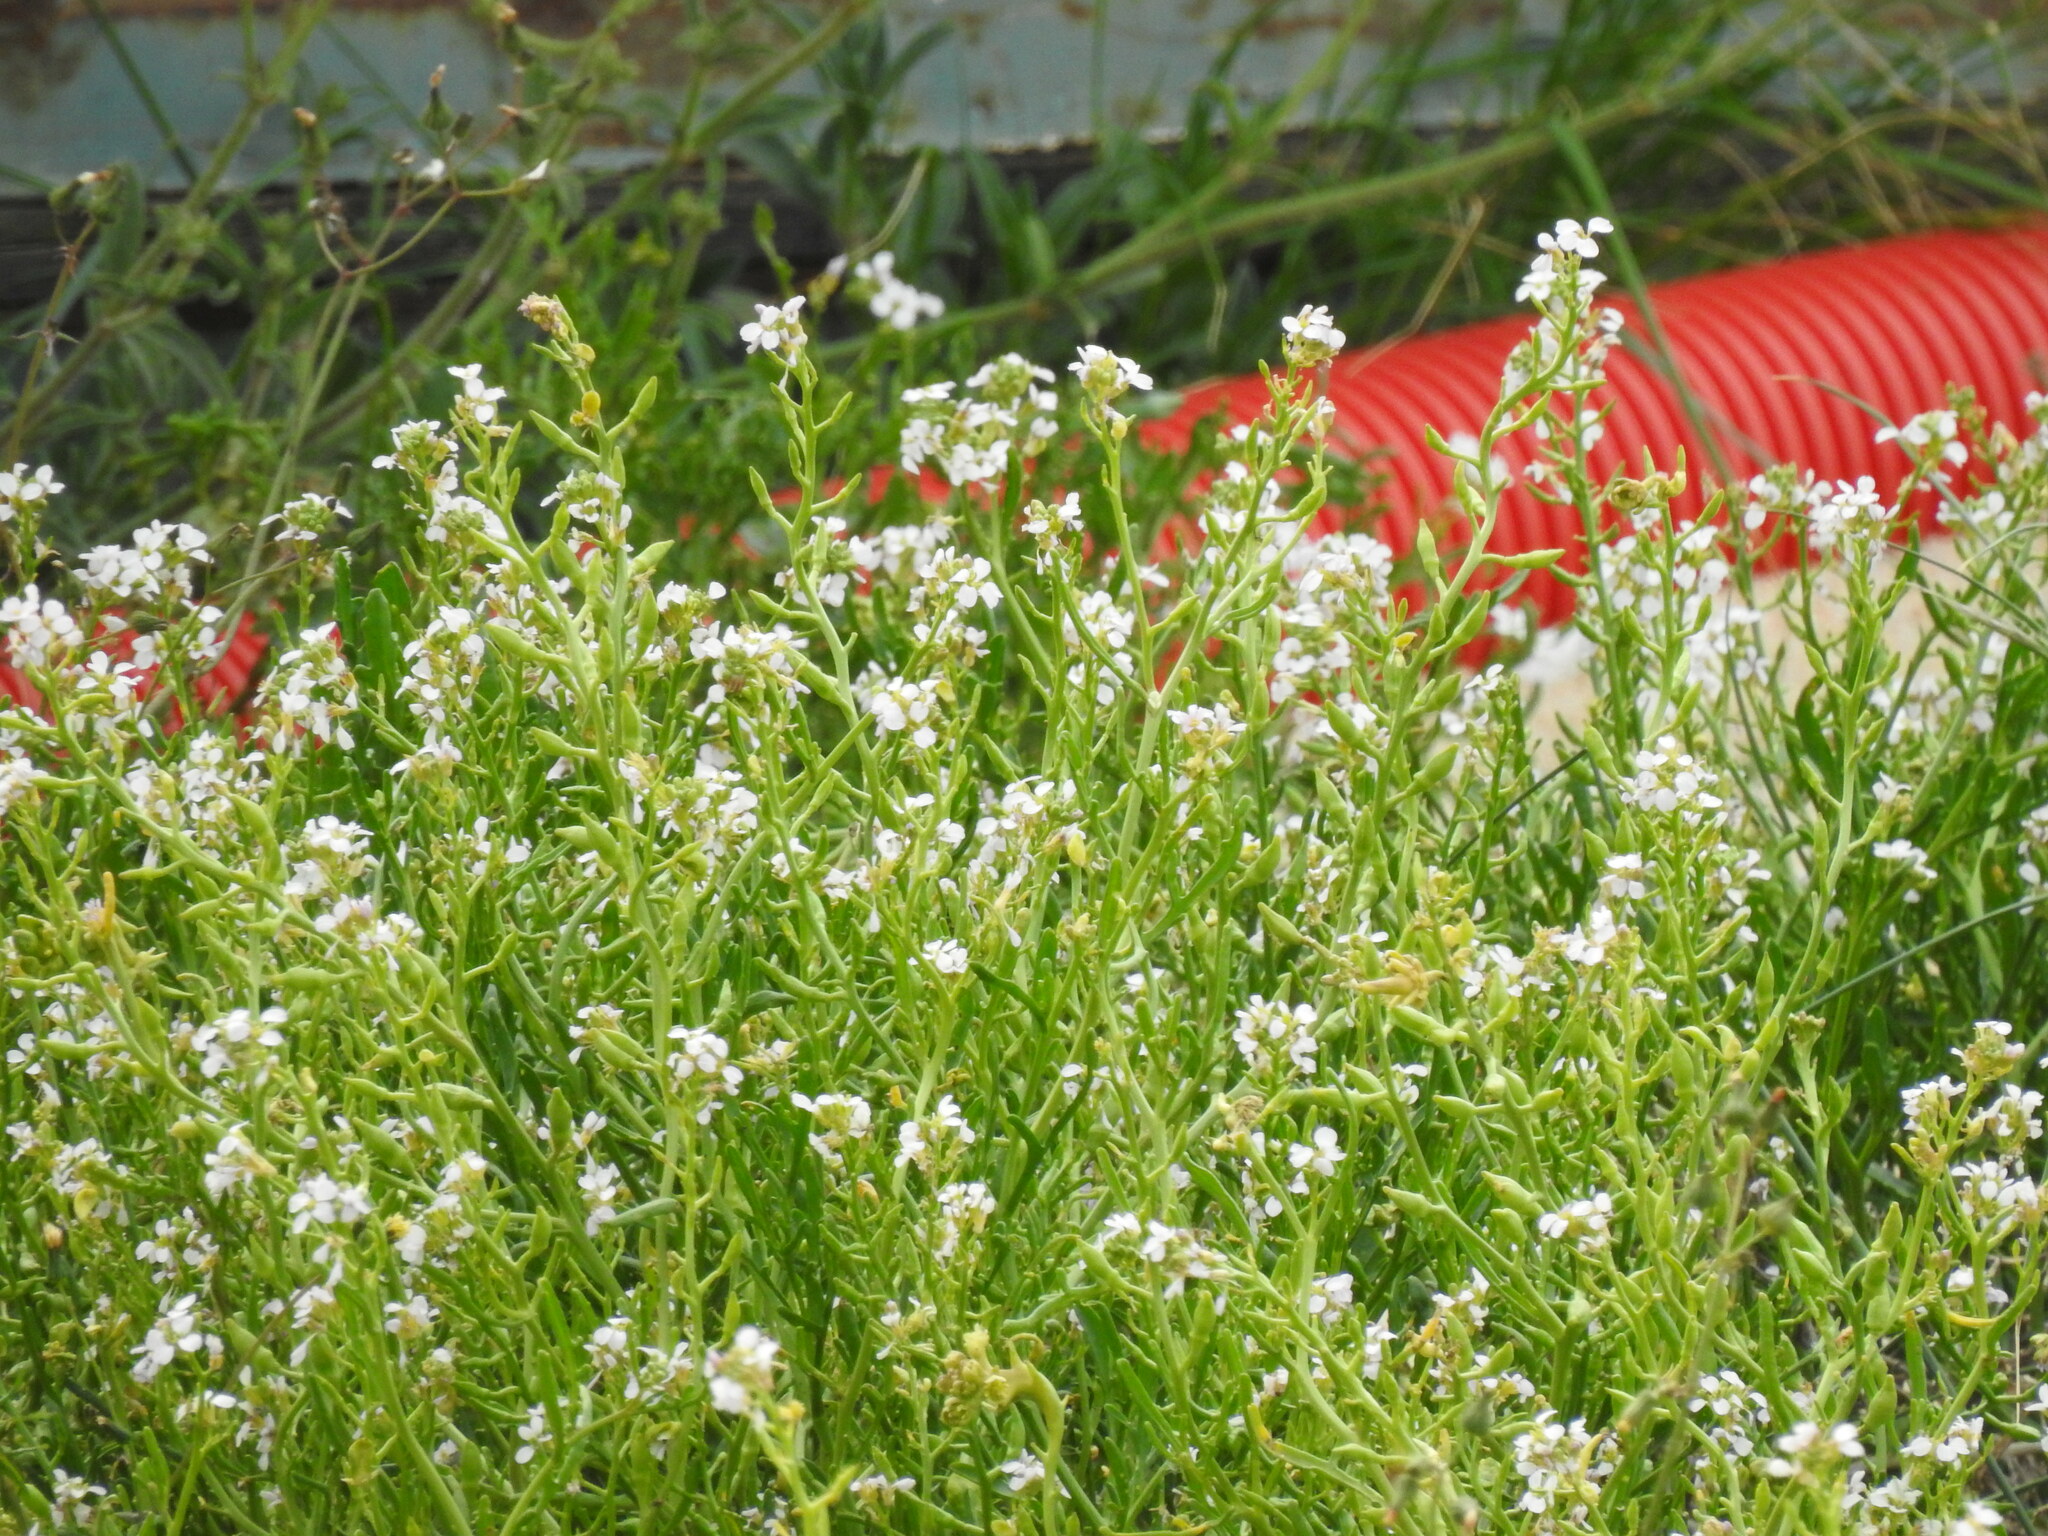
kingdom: Plantae
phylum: Tracheophyta
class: Magnoliopsida
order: Brassicales
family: Brassicaceae
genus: Cakile
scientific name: Cakile maritima
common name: Sea rocket
